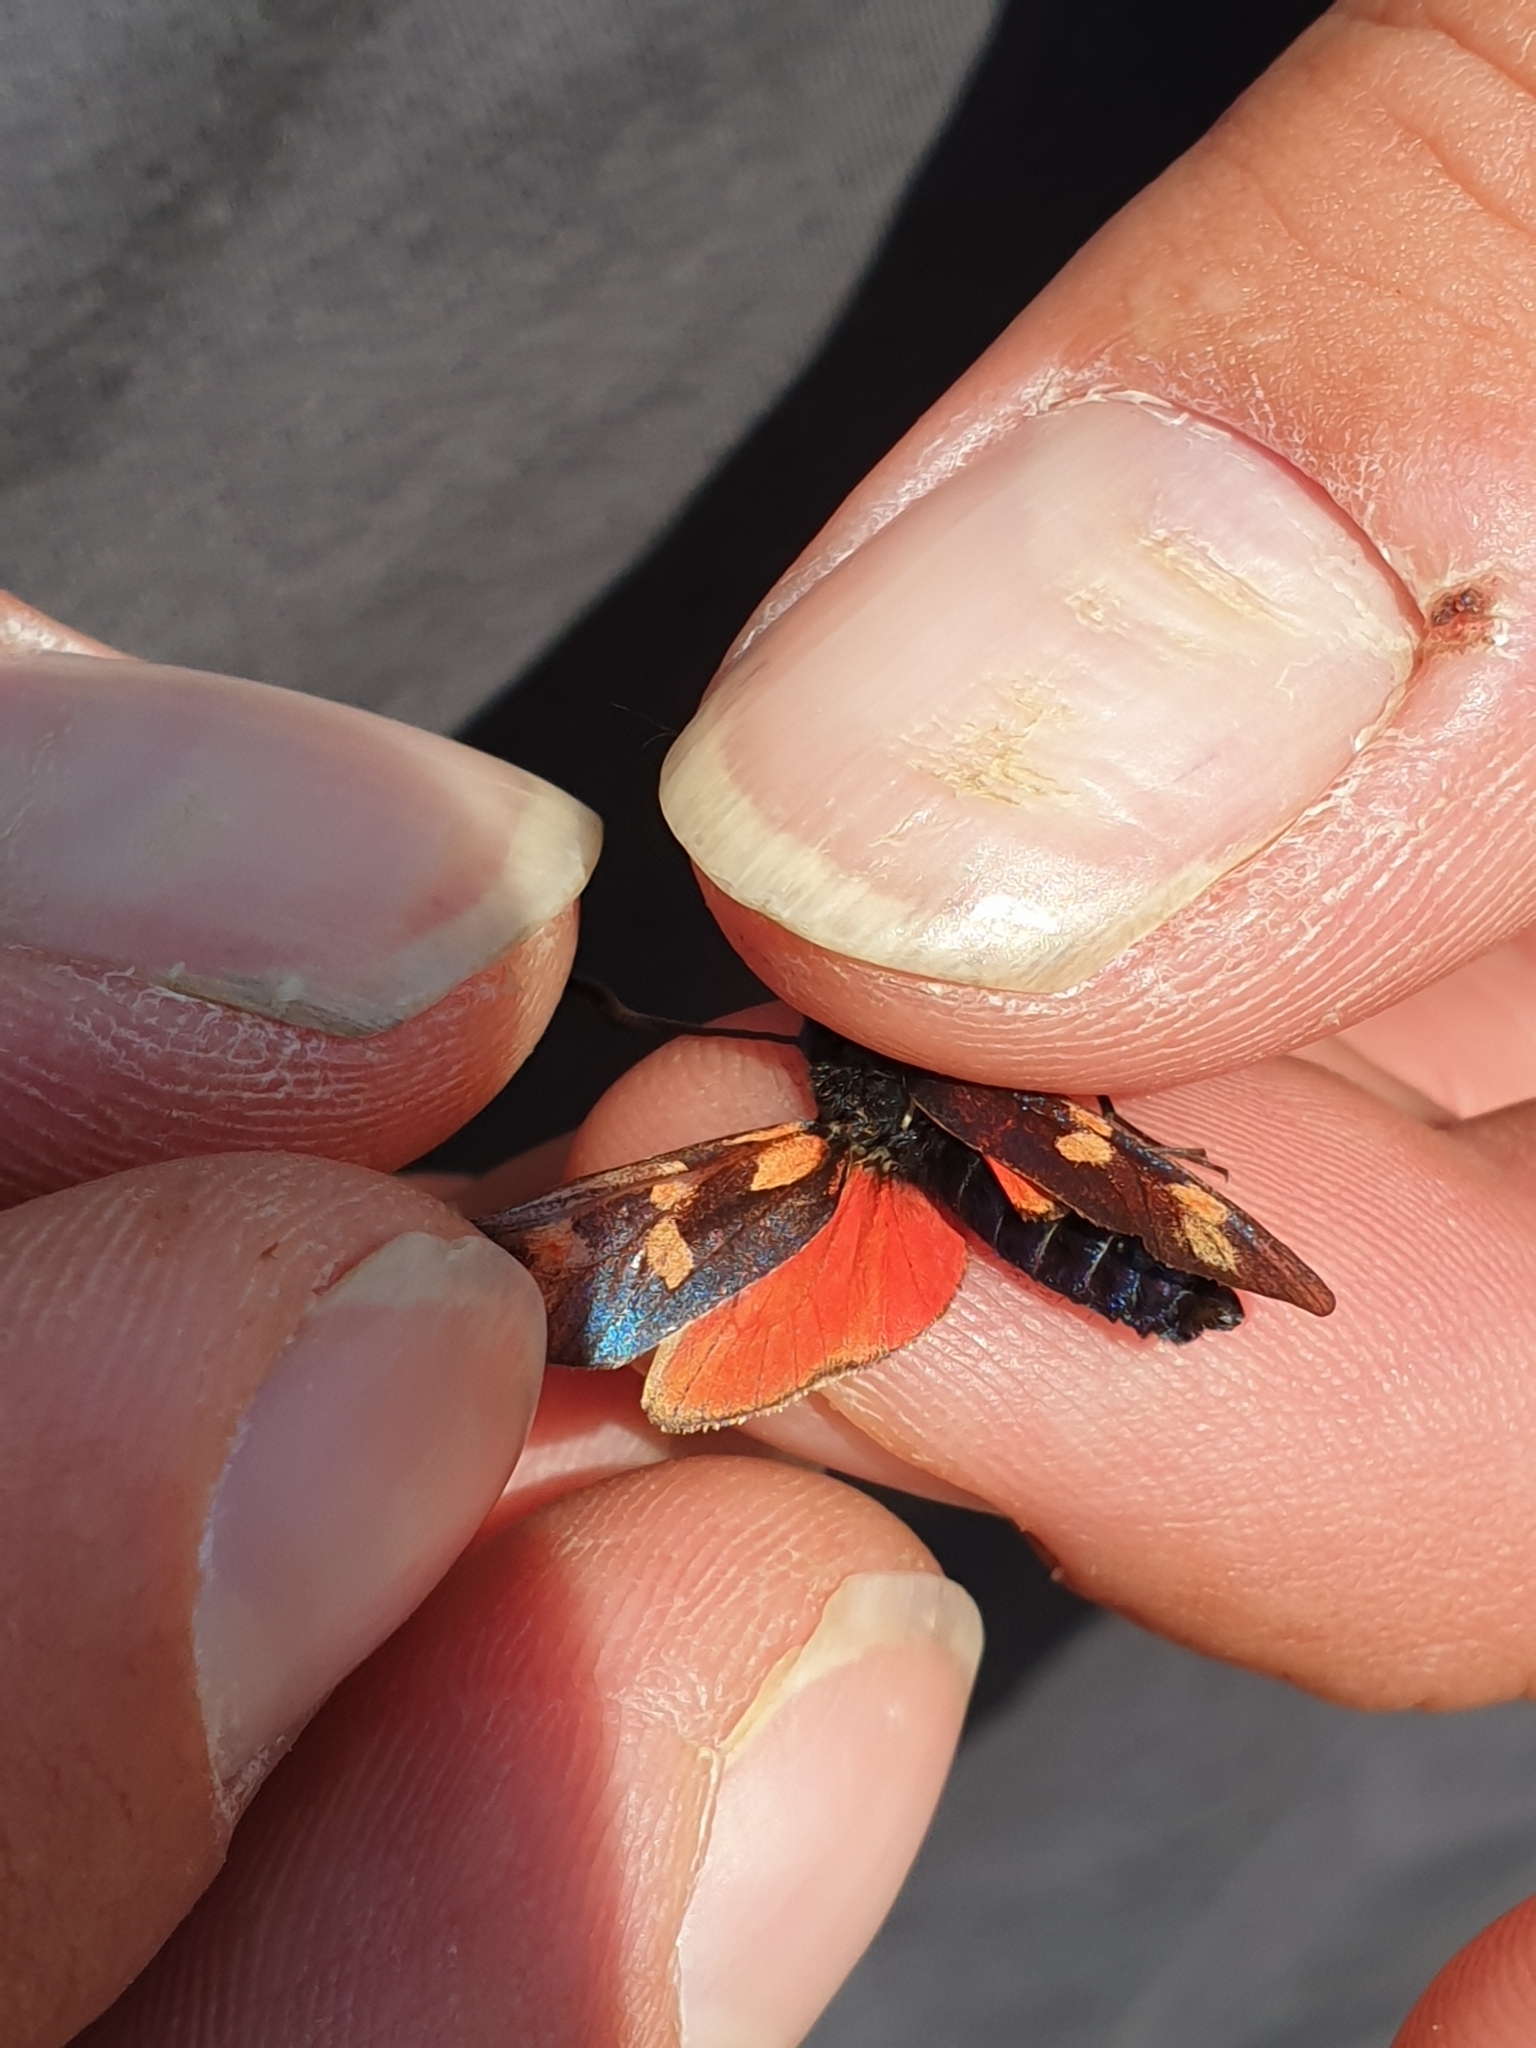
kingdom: Animalia
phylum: Arthropoda
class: Insecta
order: Lepidoptera
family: Zygaenidae
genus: Zygaena
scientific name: Zygaena filipendulae
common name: Six-spot burnet
